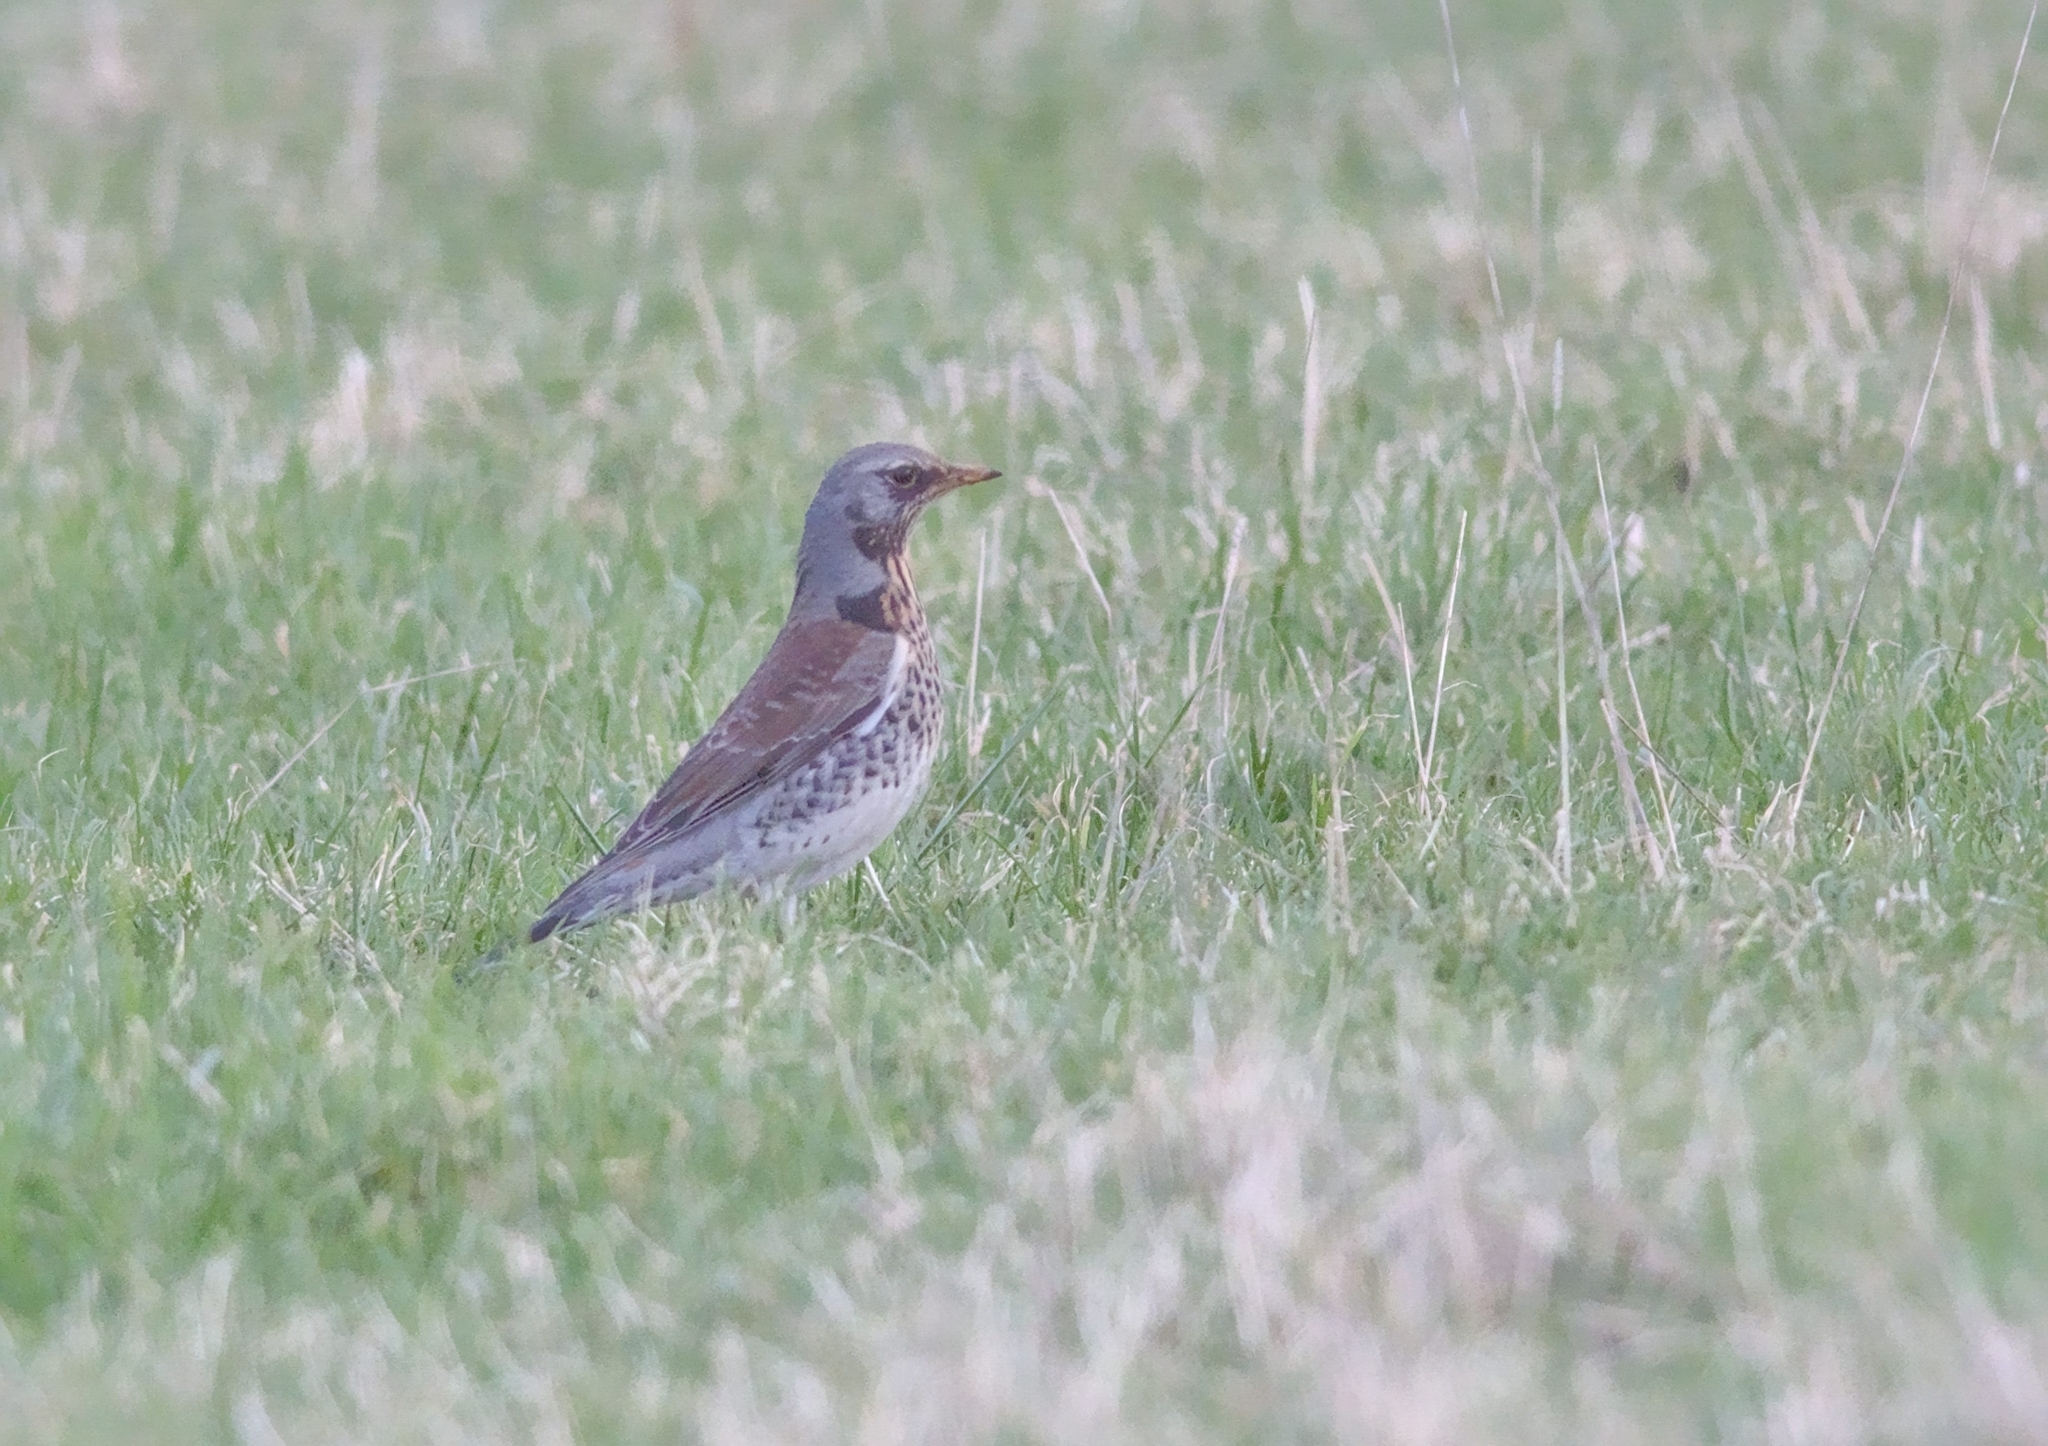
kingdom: Animalia
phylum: Chordata
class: Aves
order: Passeriformes
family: Turdidae
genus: Turdus
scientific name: Turdus pilaris
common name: Fieldfare
